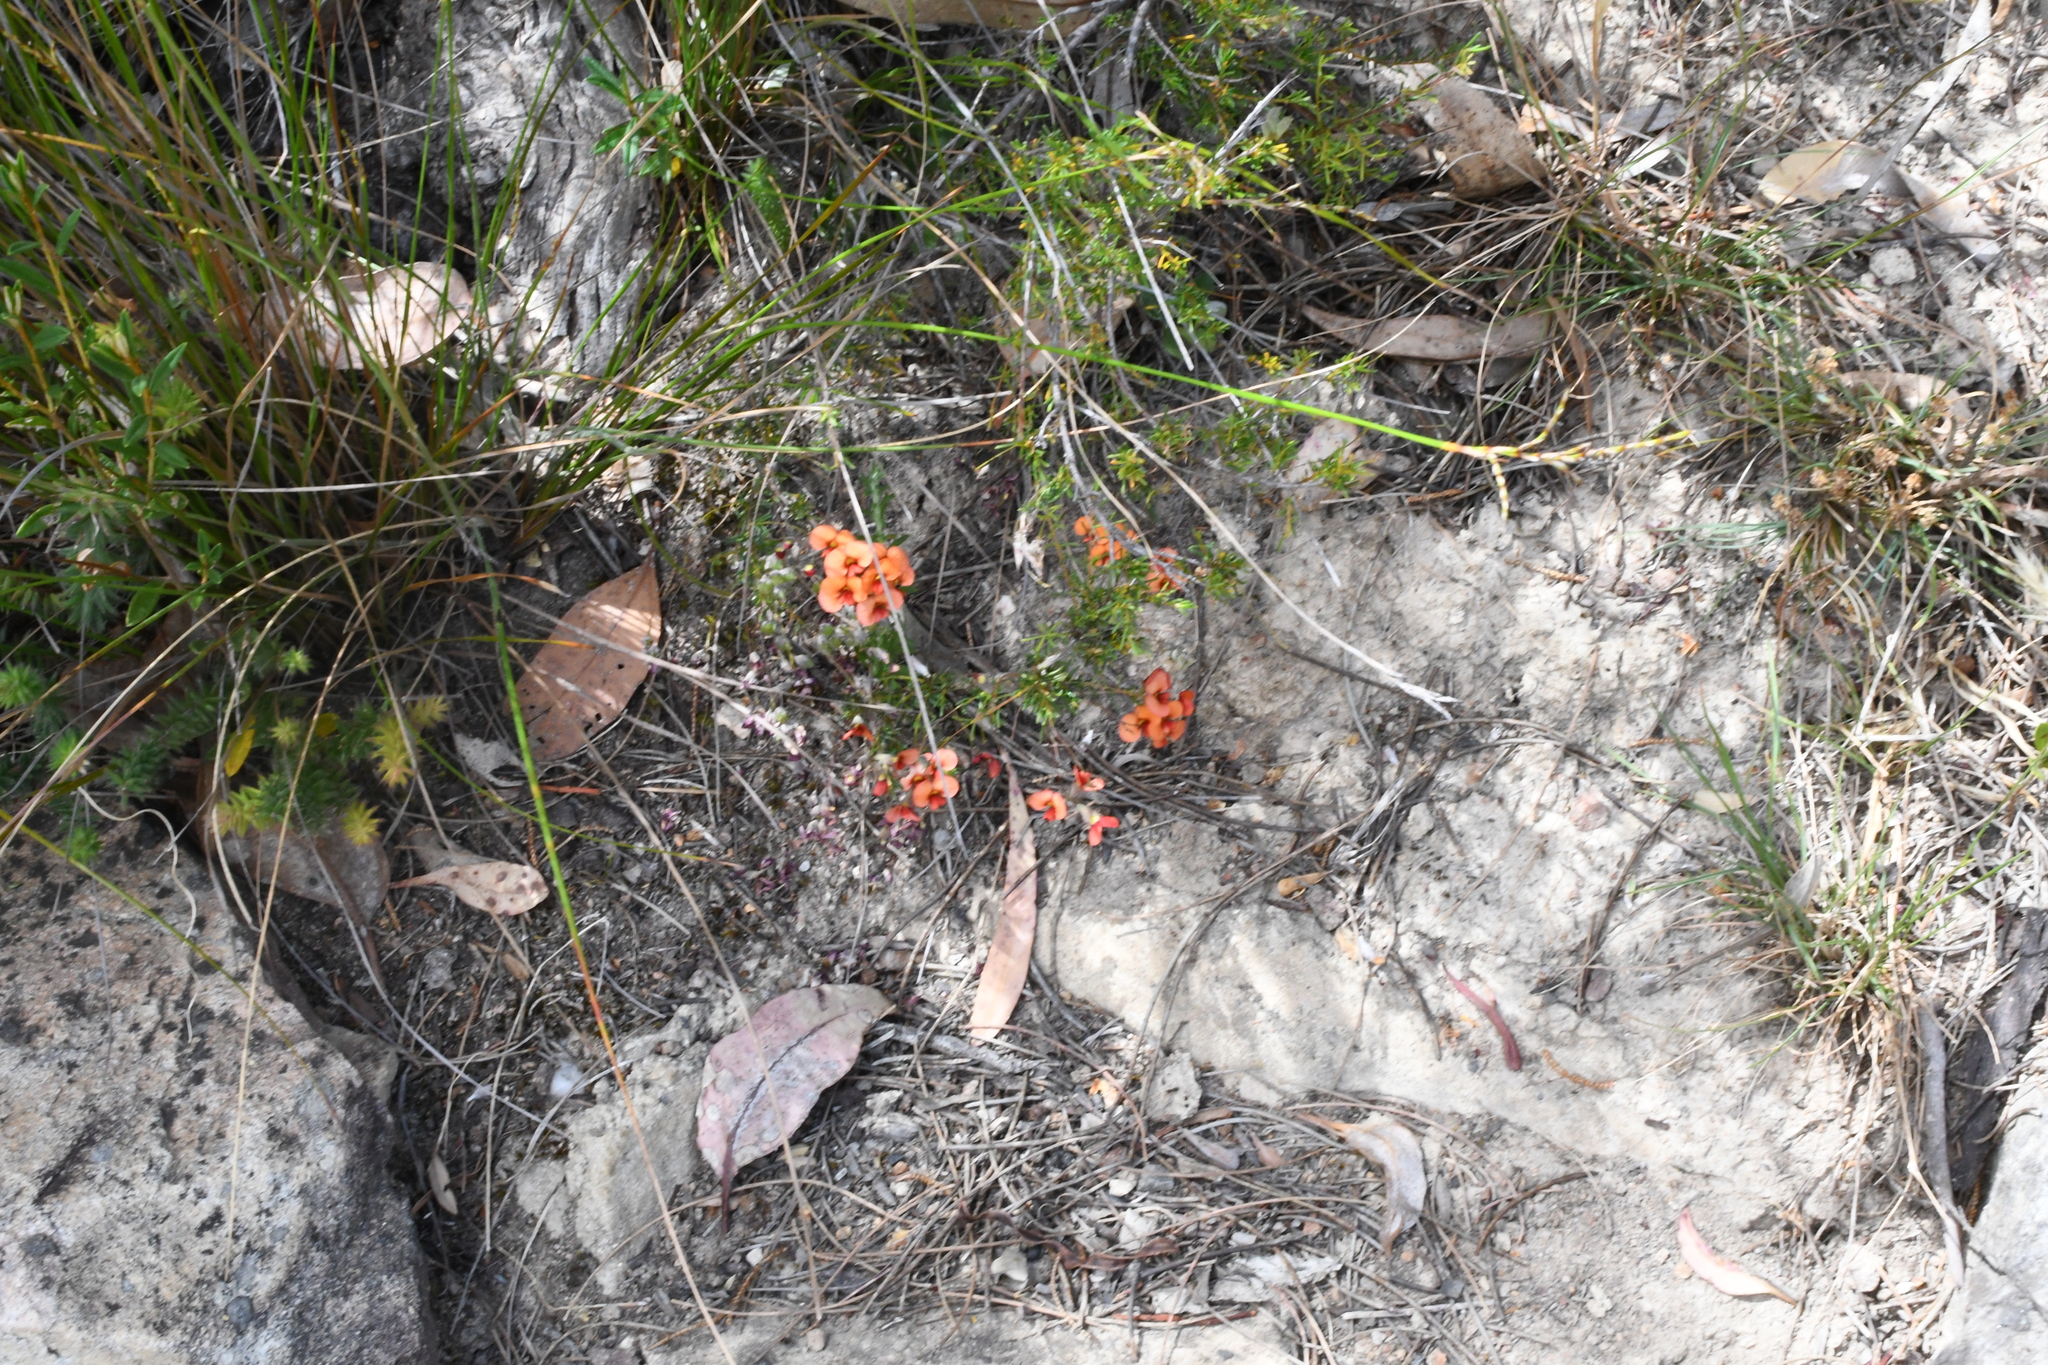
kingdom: Plantae
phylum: Tracheophyta
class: Magnoliopsida
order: Fabales
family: Fabaceae
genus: Dillwynia
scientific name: Dillwynia hispida
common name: Red parrot-pea
